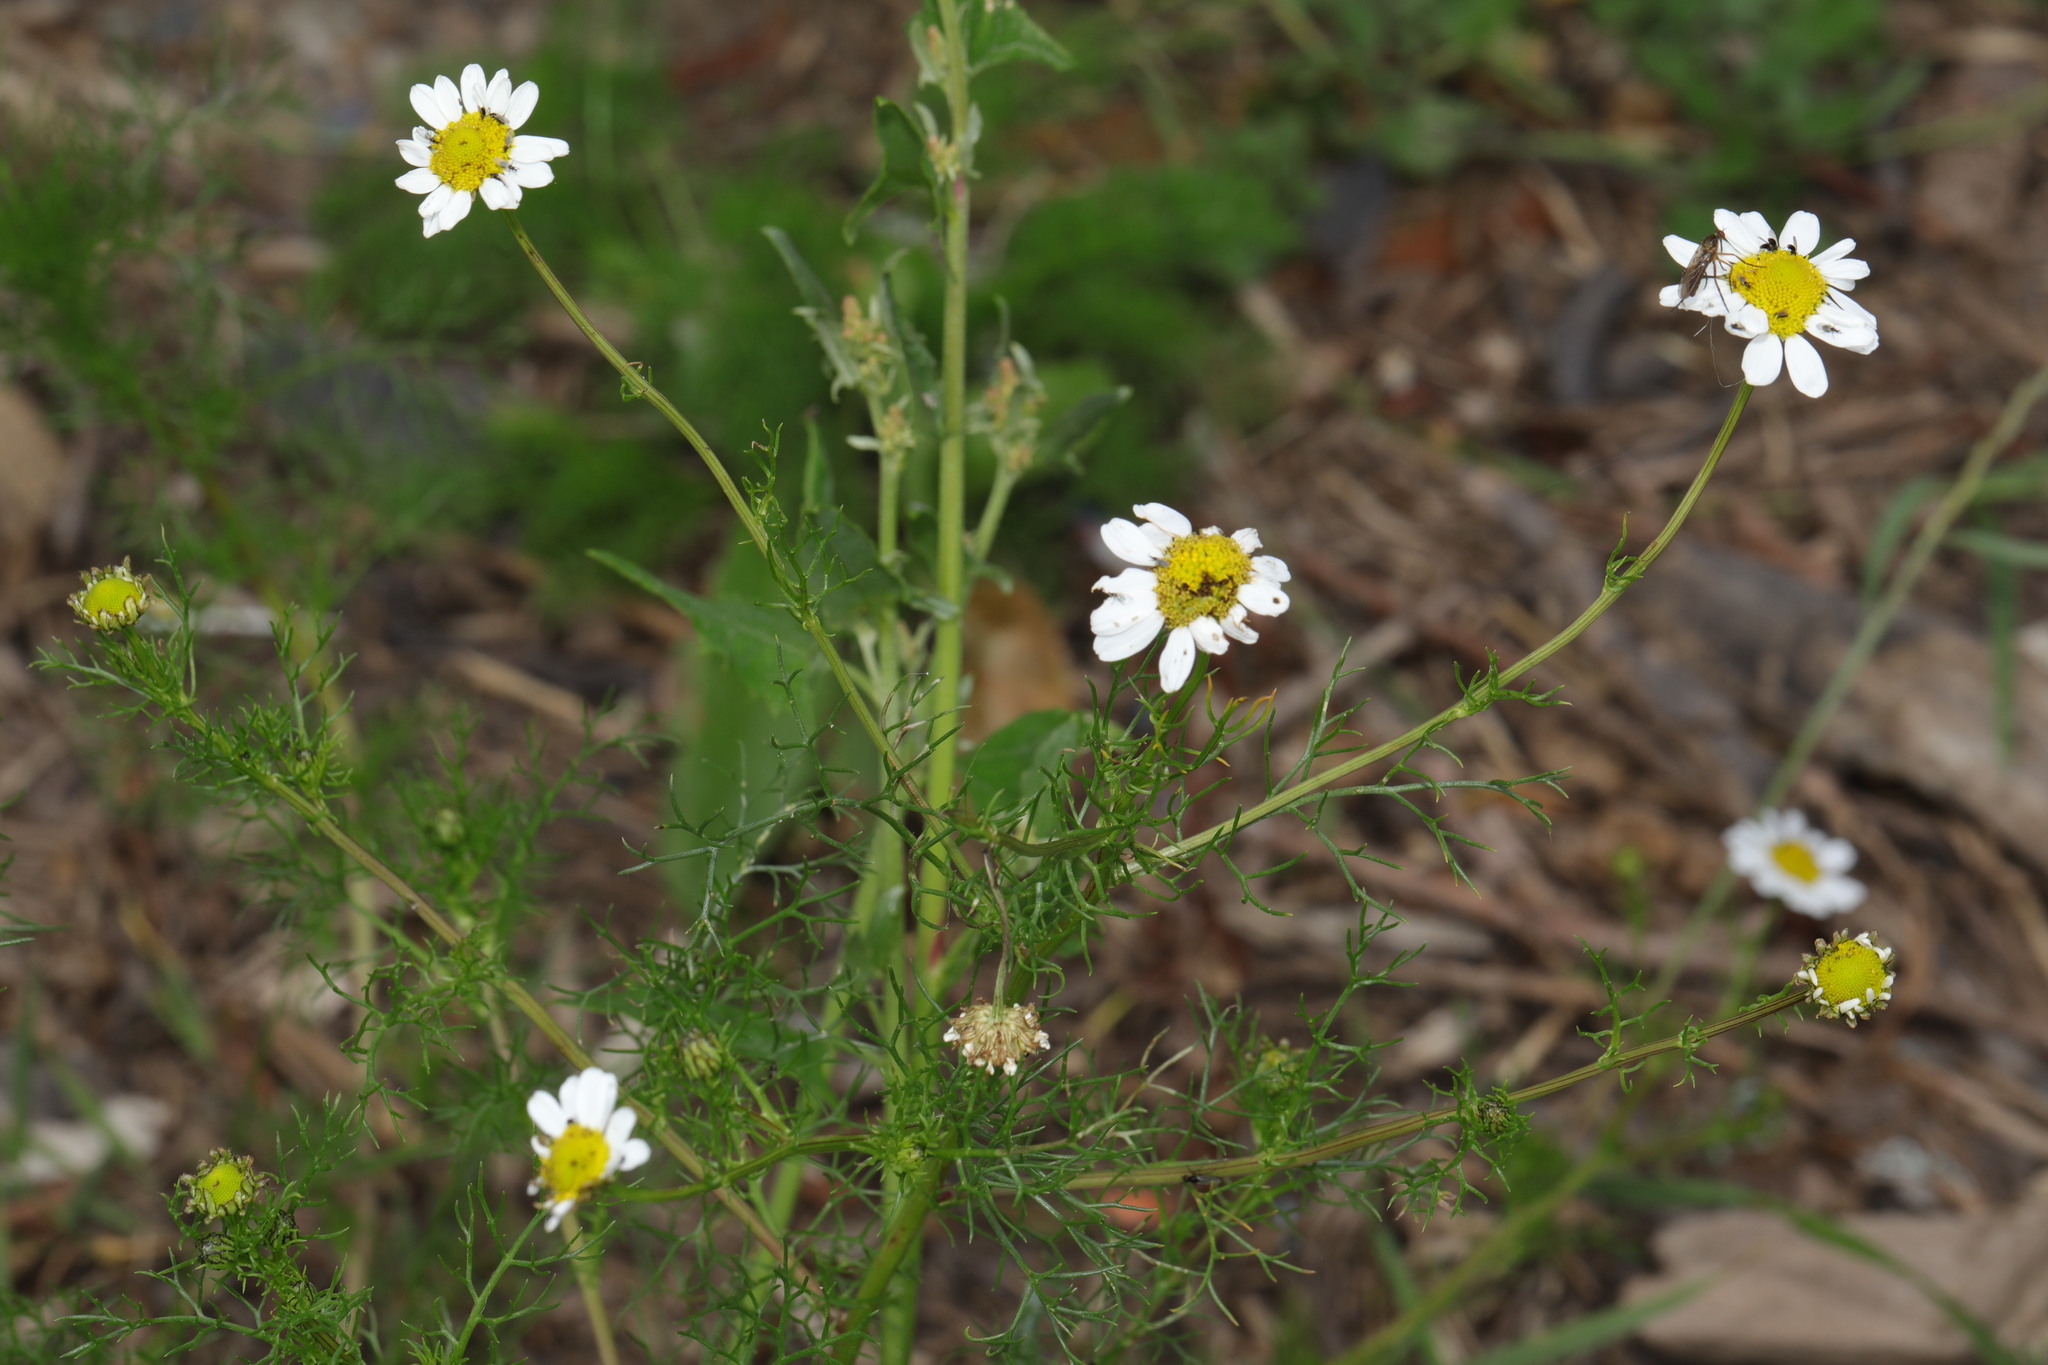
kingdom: Plantae
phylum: Tracheophyta
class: Magnoliopsida
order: Asterales
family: Asteraceae
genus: Tripleurospermum
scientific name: Tripleurospermum inodorum
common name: Scentless mayweed
